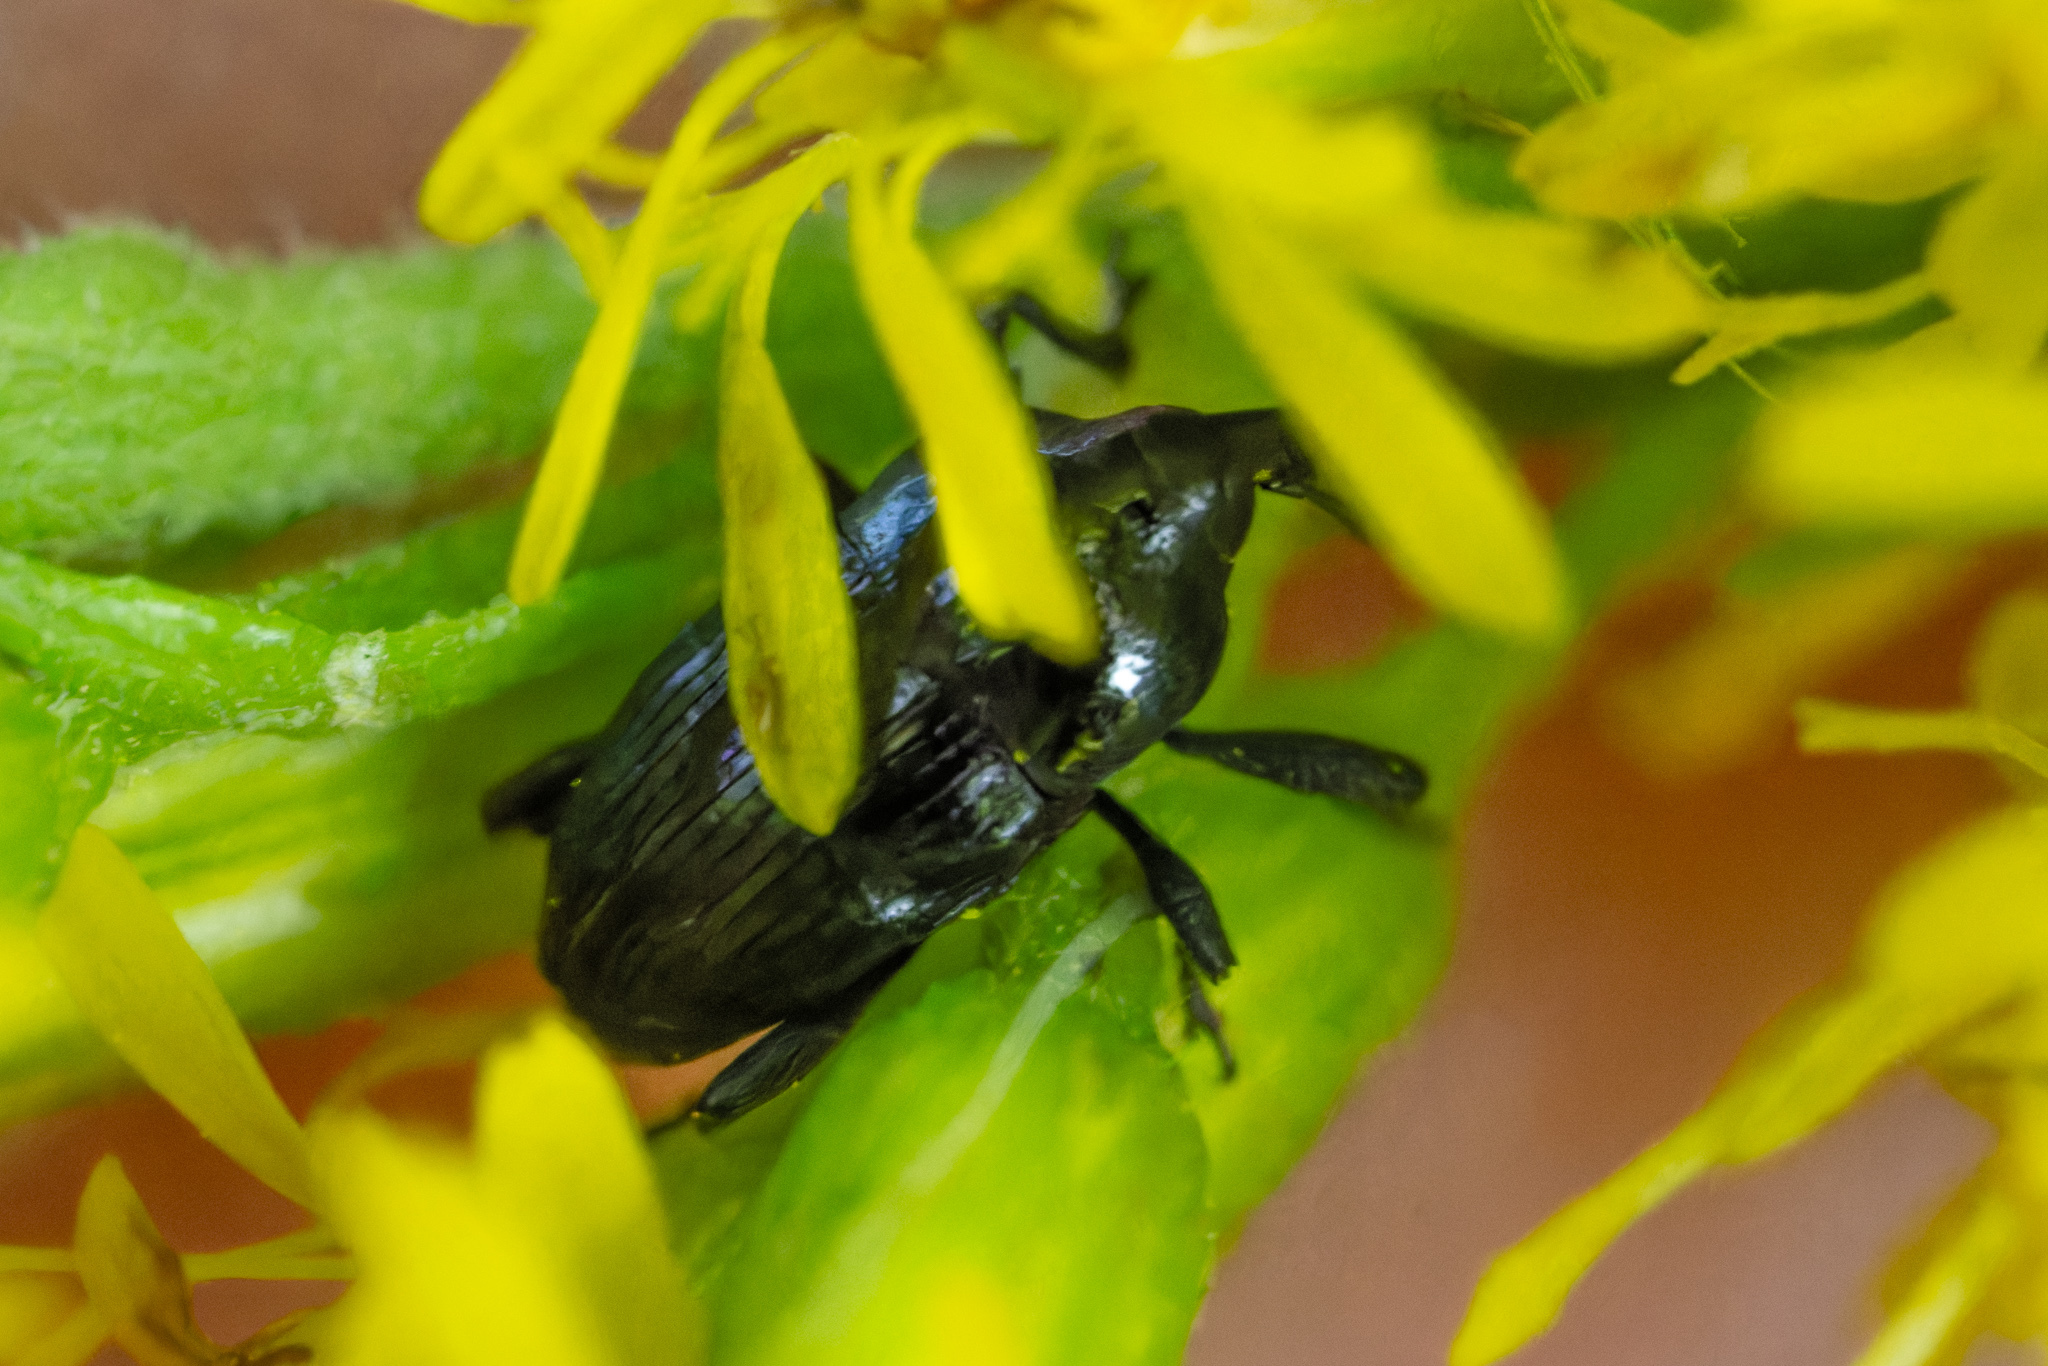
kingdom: Animalia
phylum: Arthropoda
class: Insecta
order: Coleoptera
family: Curculionidae
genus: Madarellus
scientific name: Madarellus undulatus
